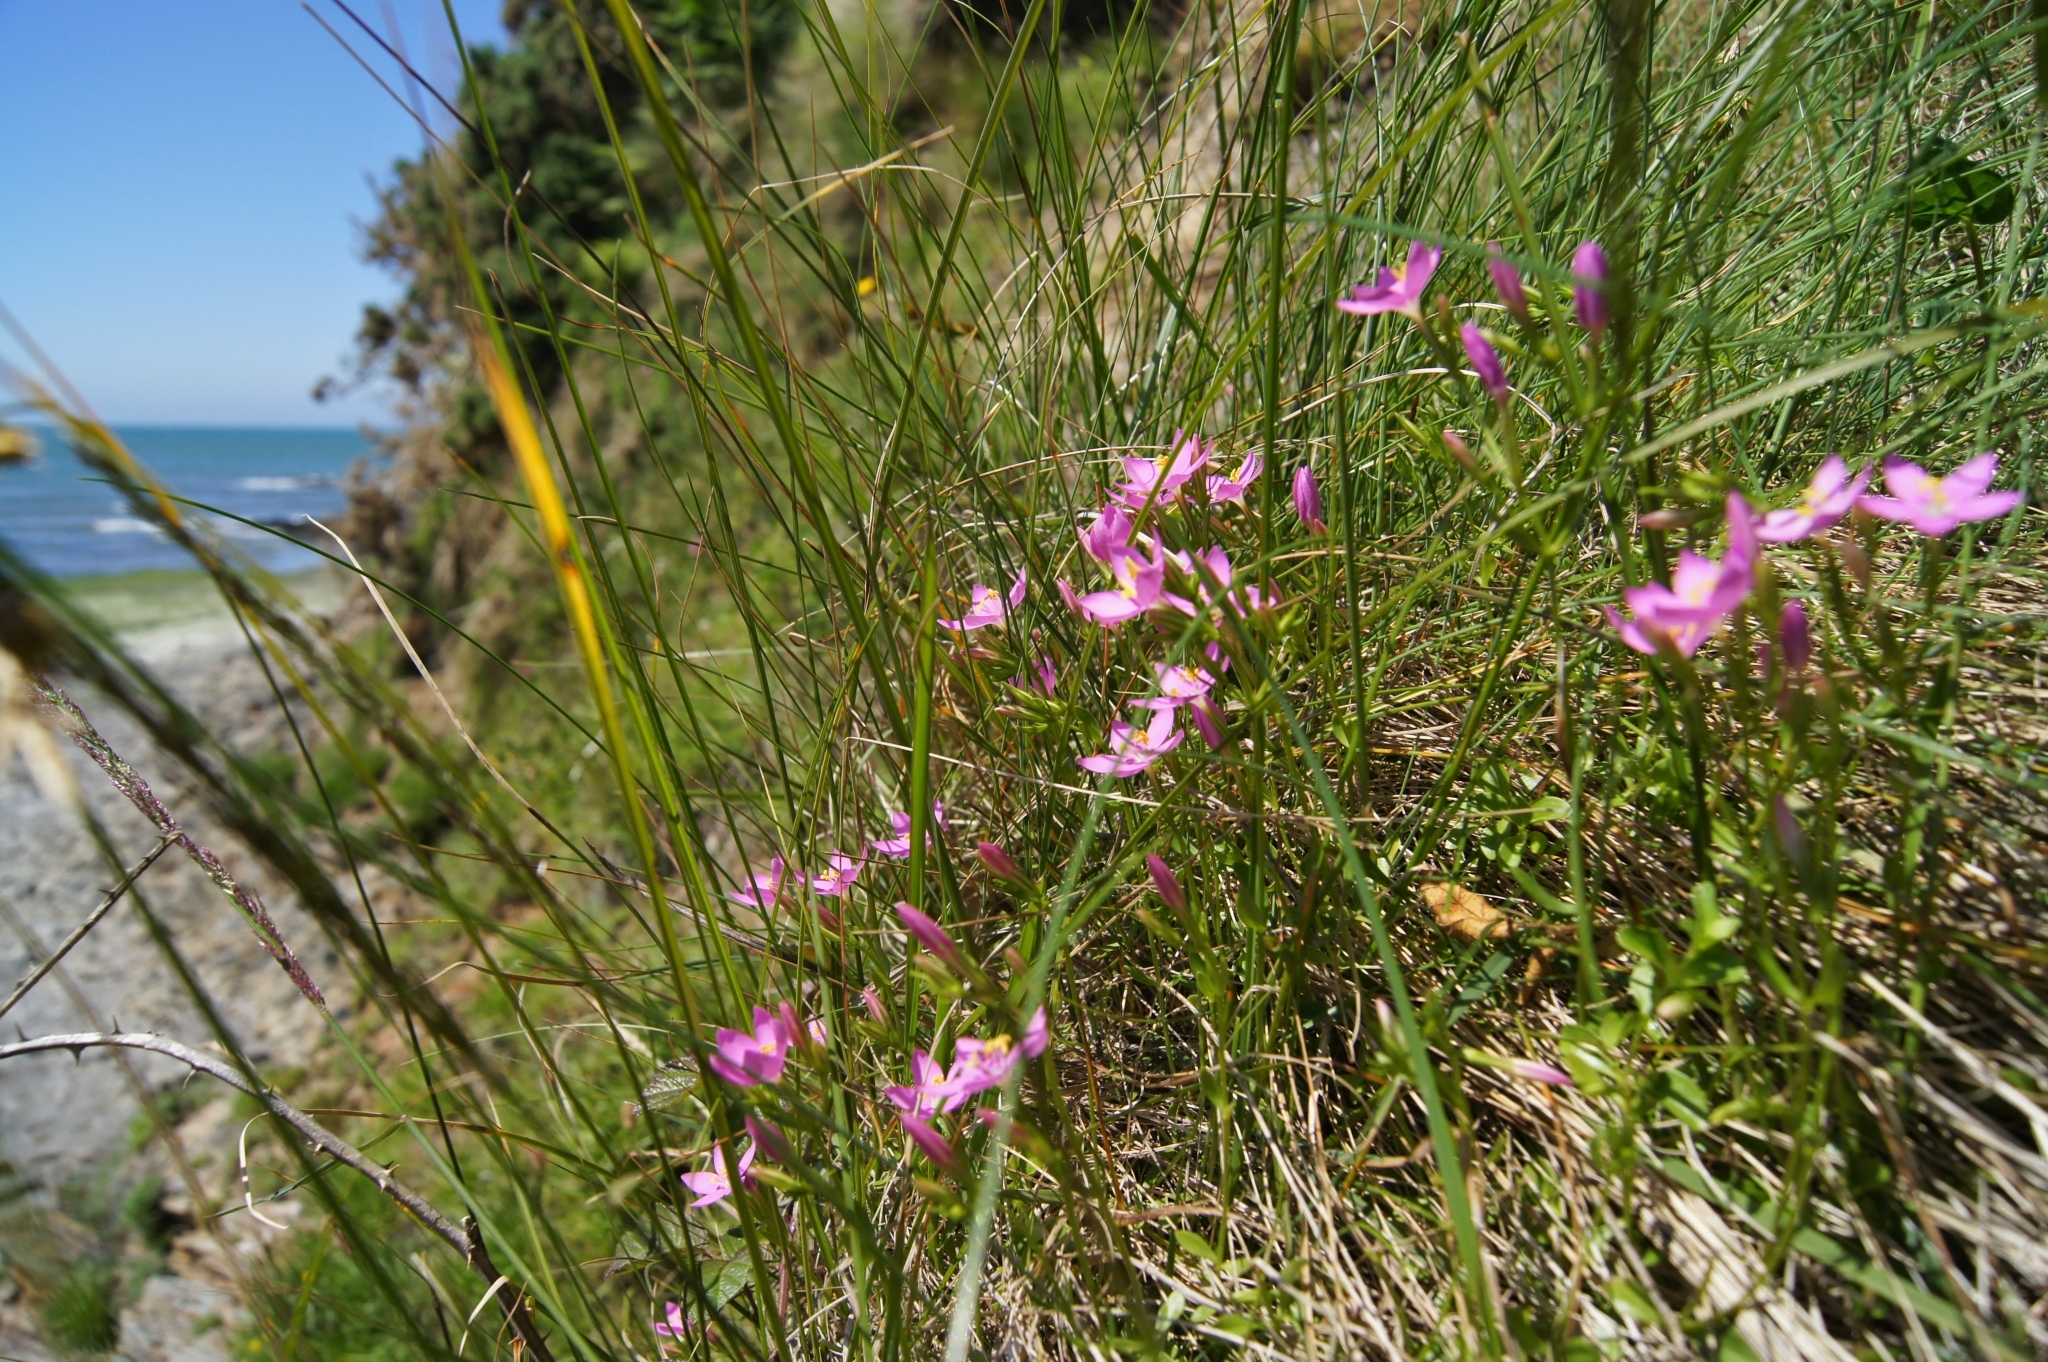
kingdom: Plantae
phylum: Tracheophyta
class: Magnoliopsida
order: Gentianales
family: Gentianaceae
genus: Centaurium
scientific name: Centaurium scilloides
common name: Perennial centaury
